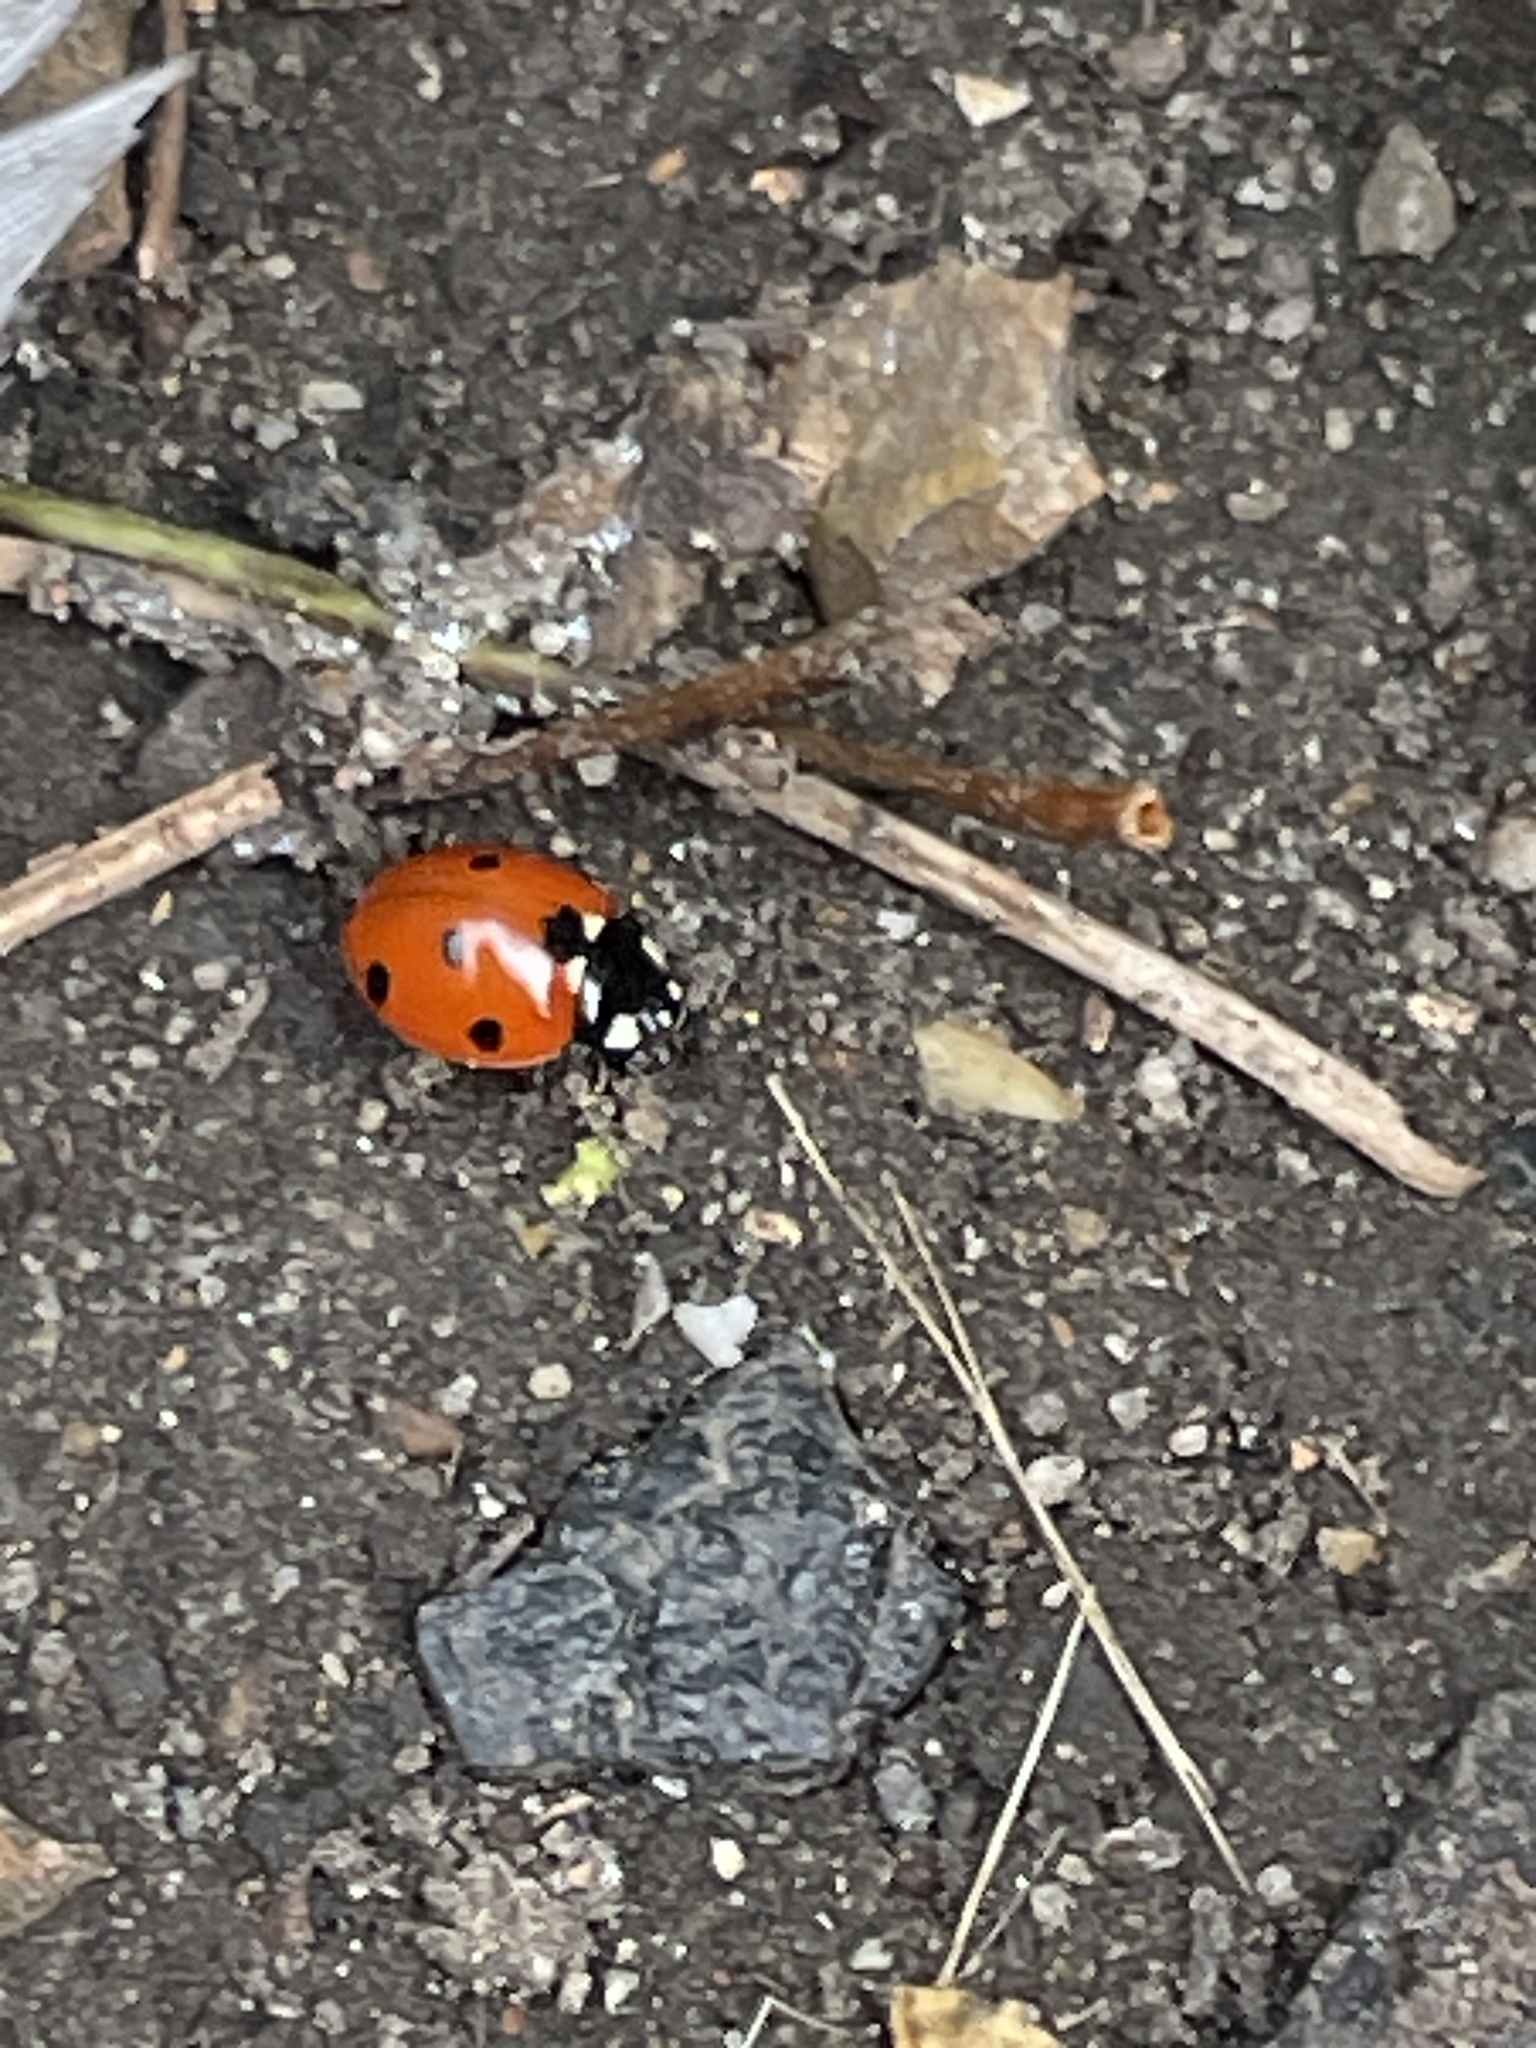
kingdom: Animalia
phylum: Arthropoda
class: Insecta
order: Coleoptera
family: Coccinellidae
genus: Coccinella
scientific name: Coccinella septempunctata
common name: Sevenspotted lady beetle
